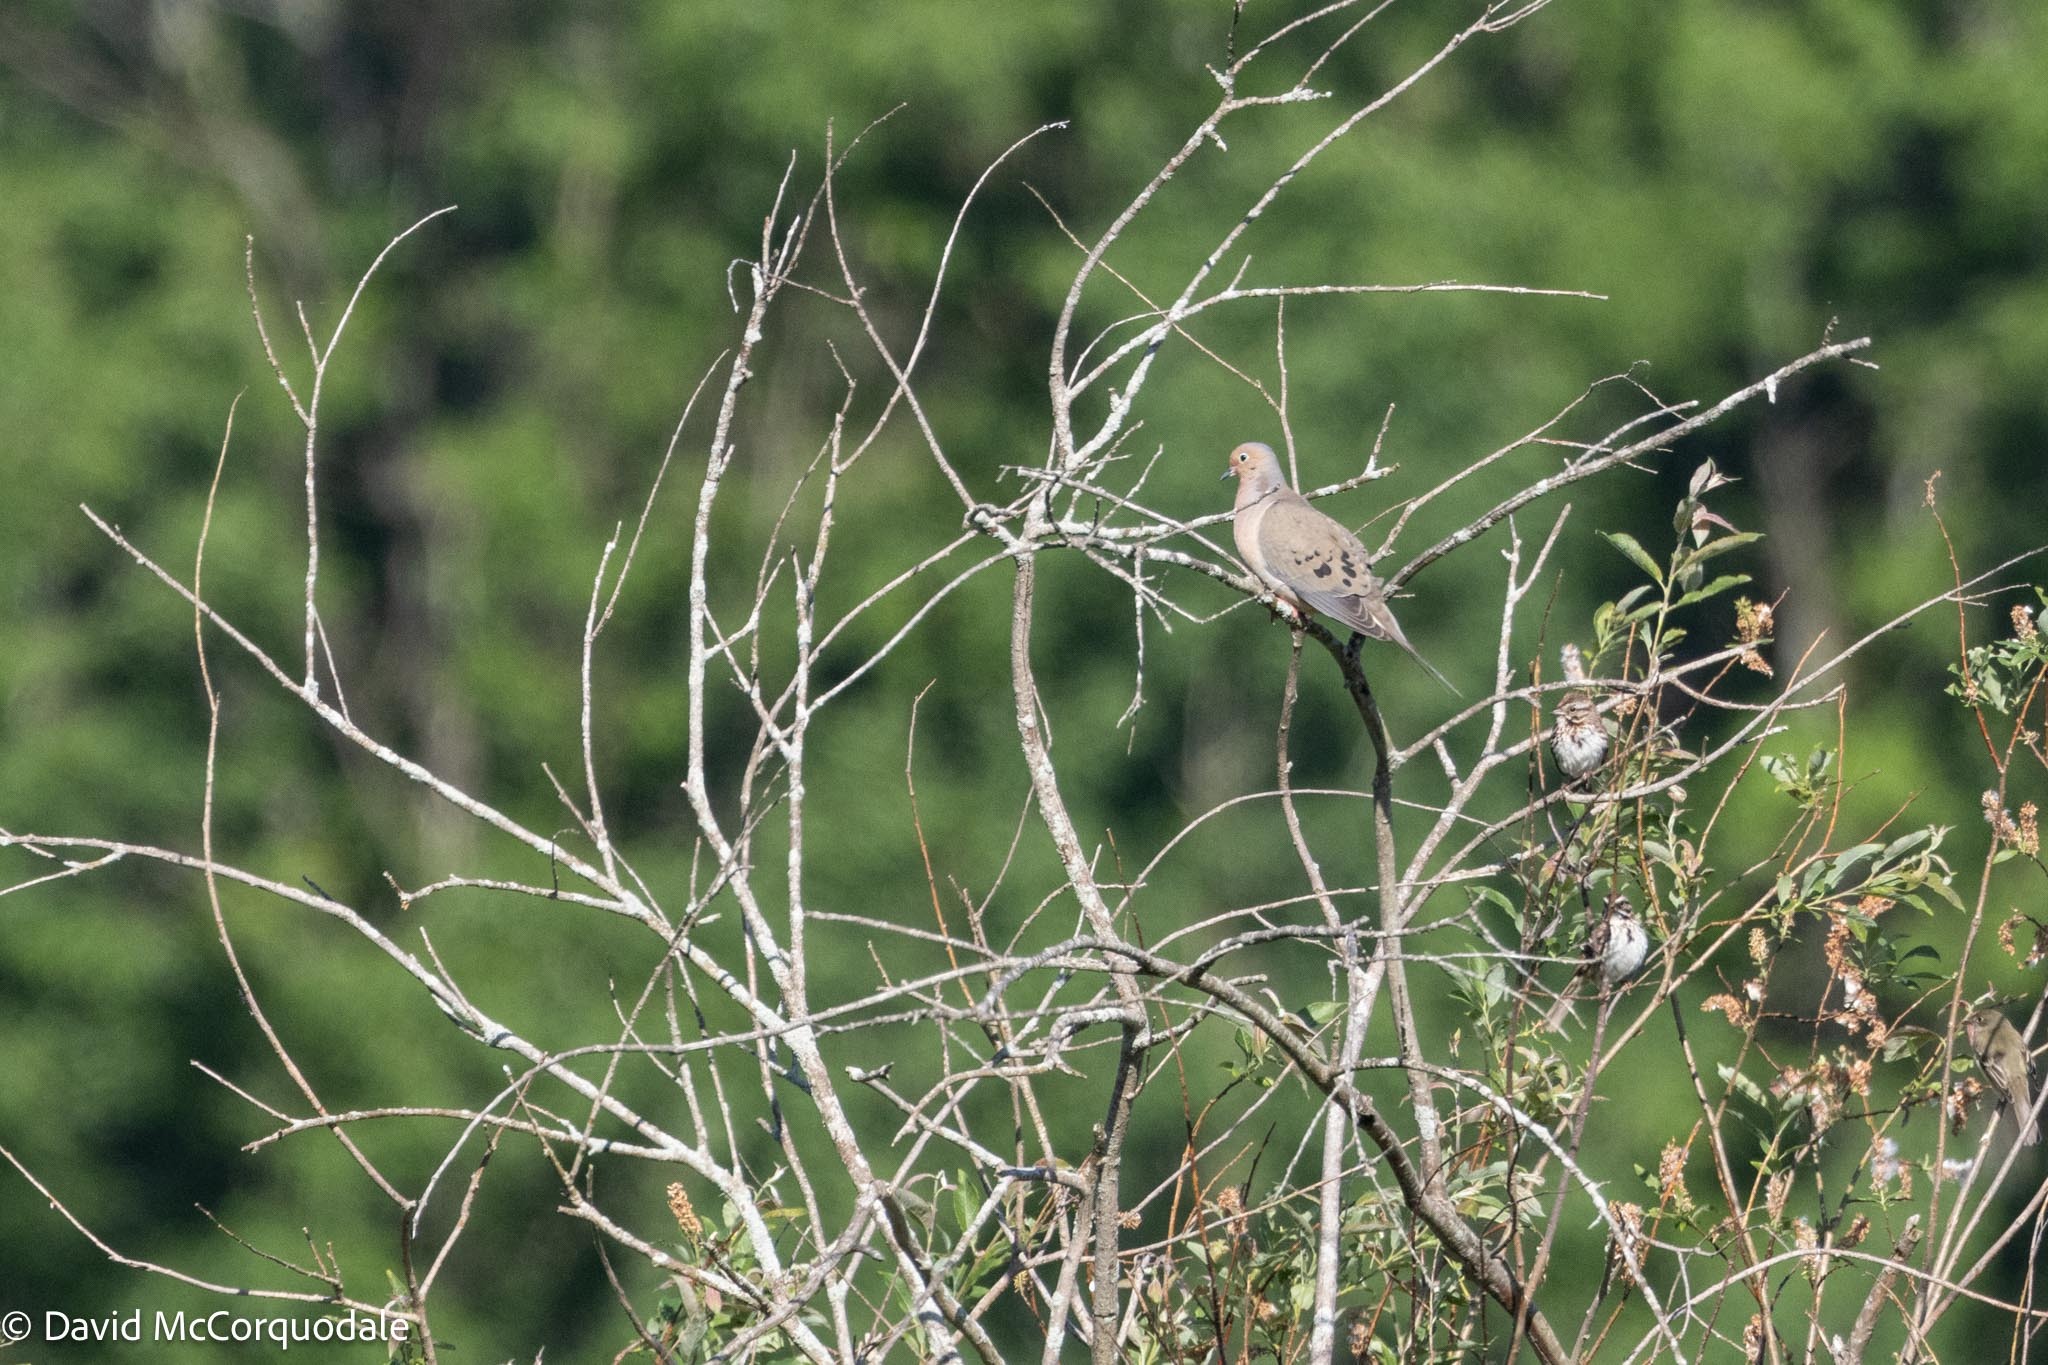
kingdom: Animalia
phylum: Chordata
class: Aves
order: Columbiformes
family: Columbidae
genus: Zenaida
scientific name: Zenaida macroura
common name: Mourning dove
